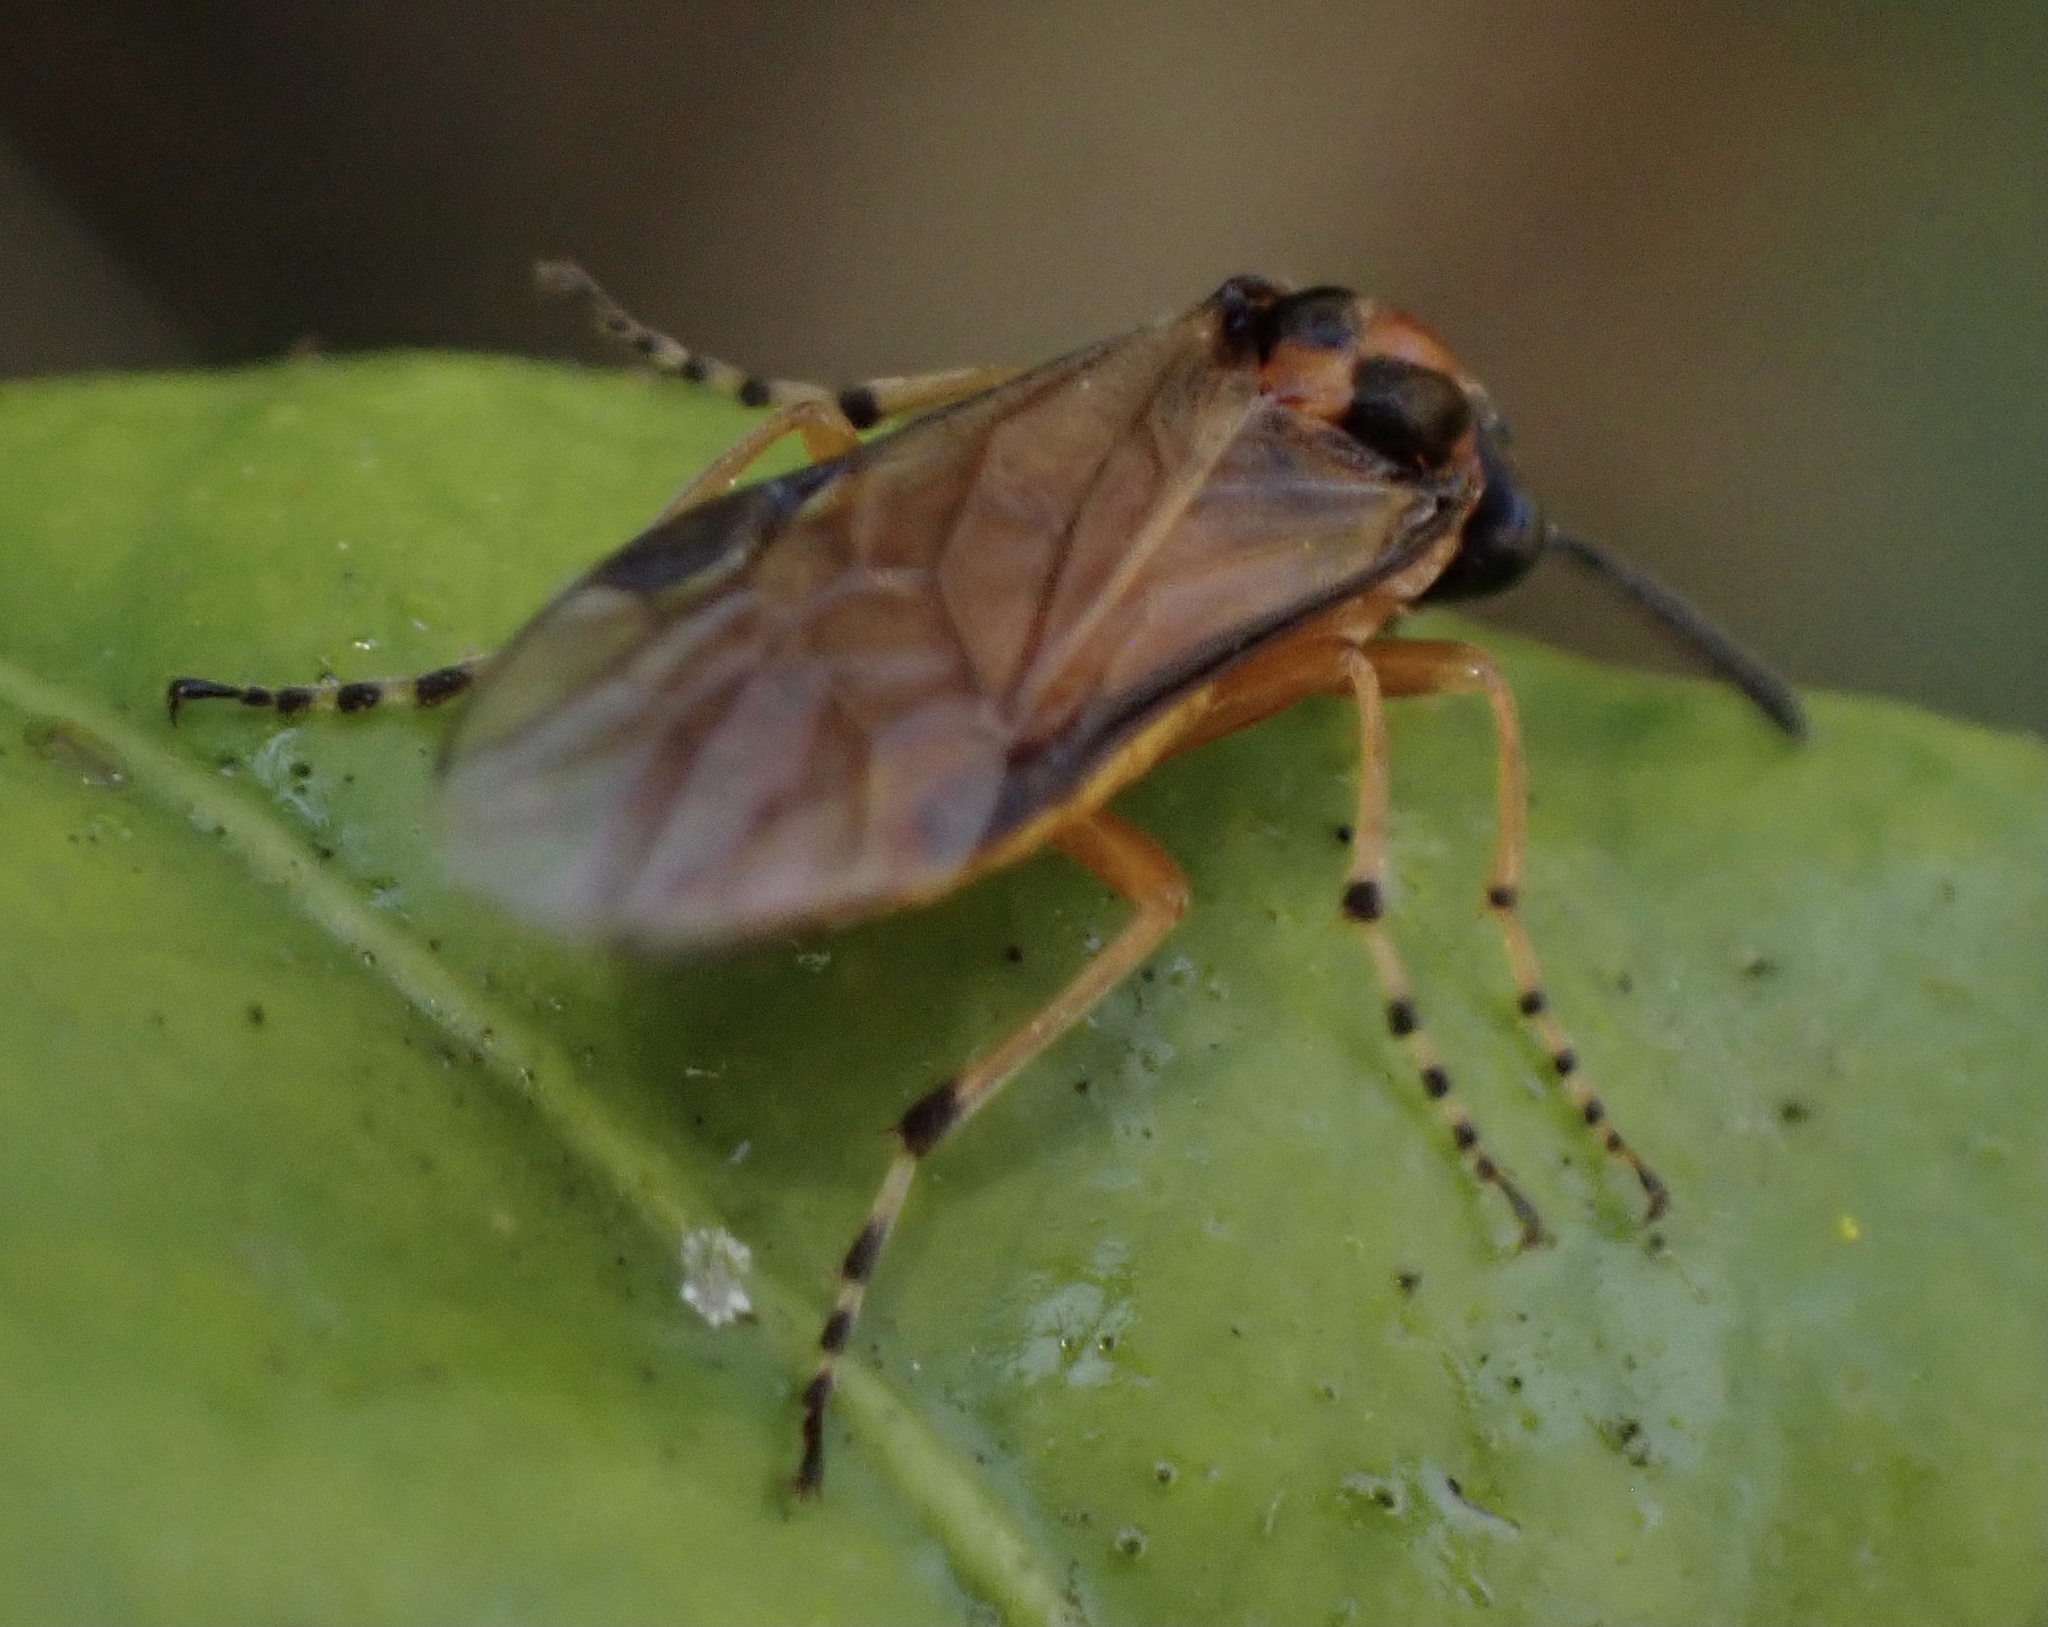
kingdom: Animalia
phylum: Arthropoda
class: Insecta
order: Hymenoptera
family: Tenthredinidae
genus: Athalia
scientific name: Athalia rosae
